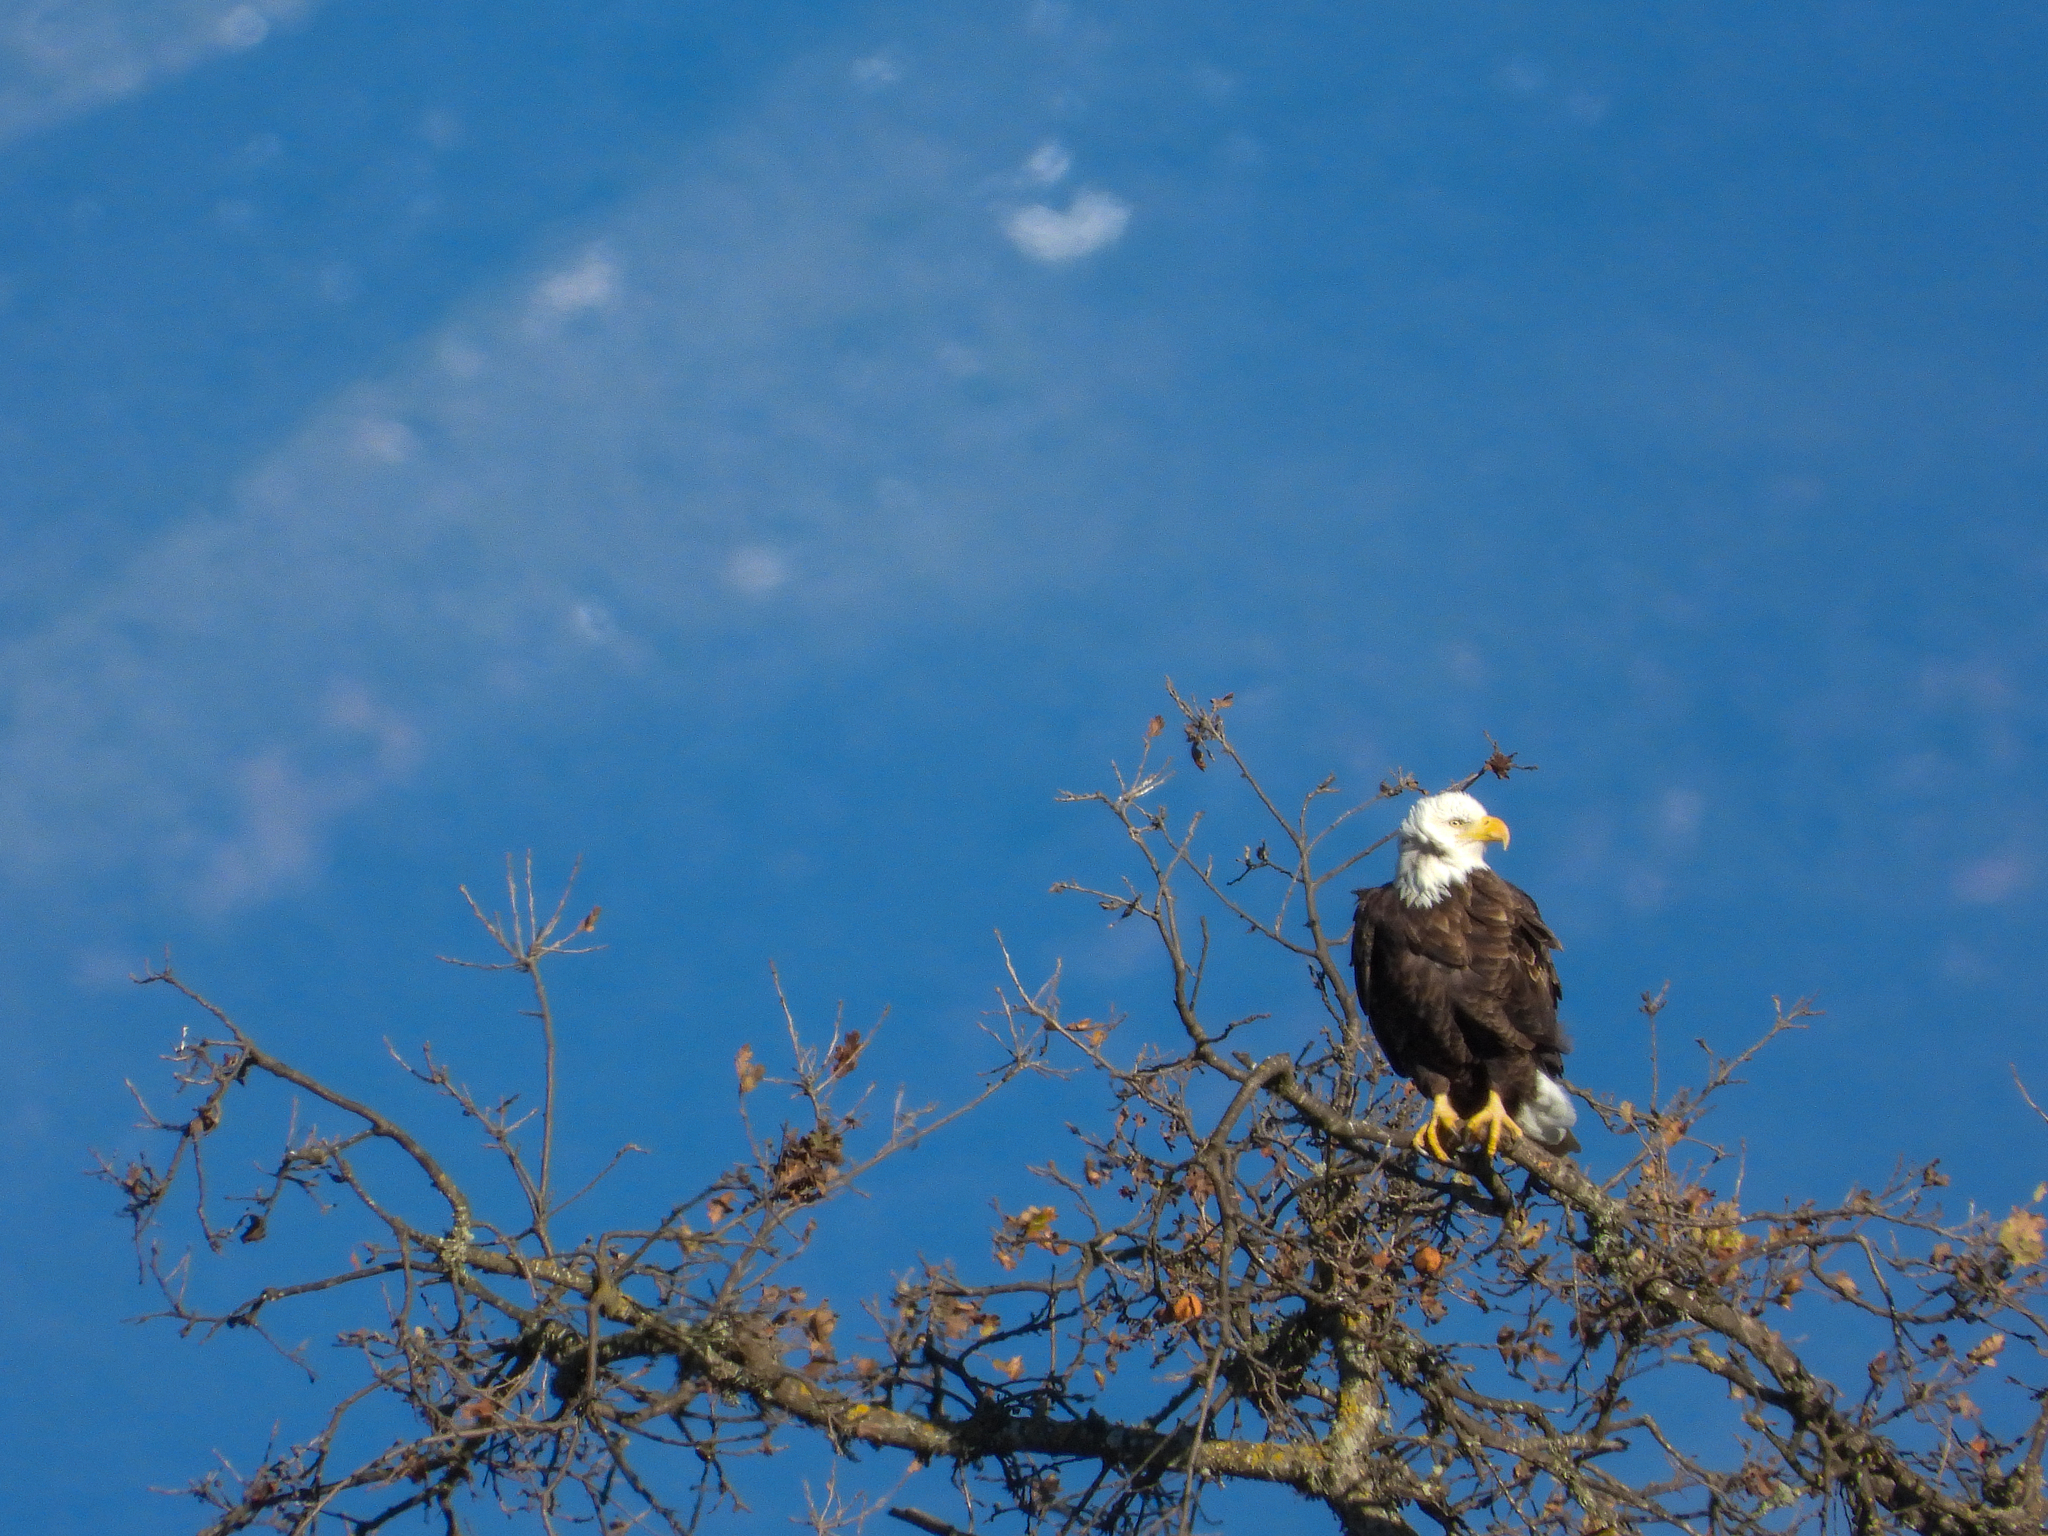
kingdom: Animalia
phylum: Chordata
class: Aves
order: Accipitriformes
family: Accipitridae
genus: Haliaeetus
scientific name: Haliaeetus leucocephalus
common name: Bald eagle
